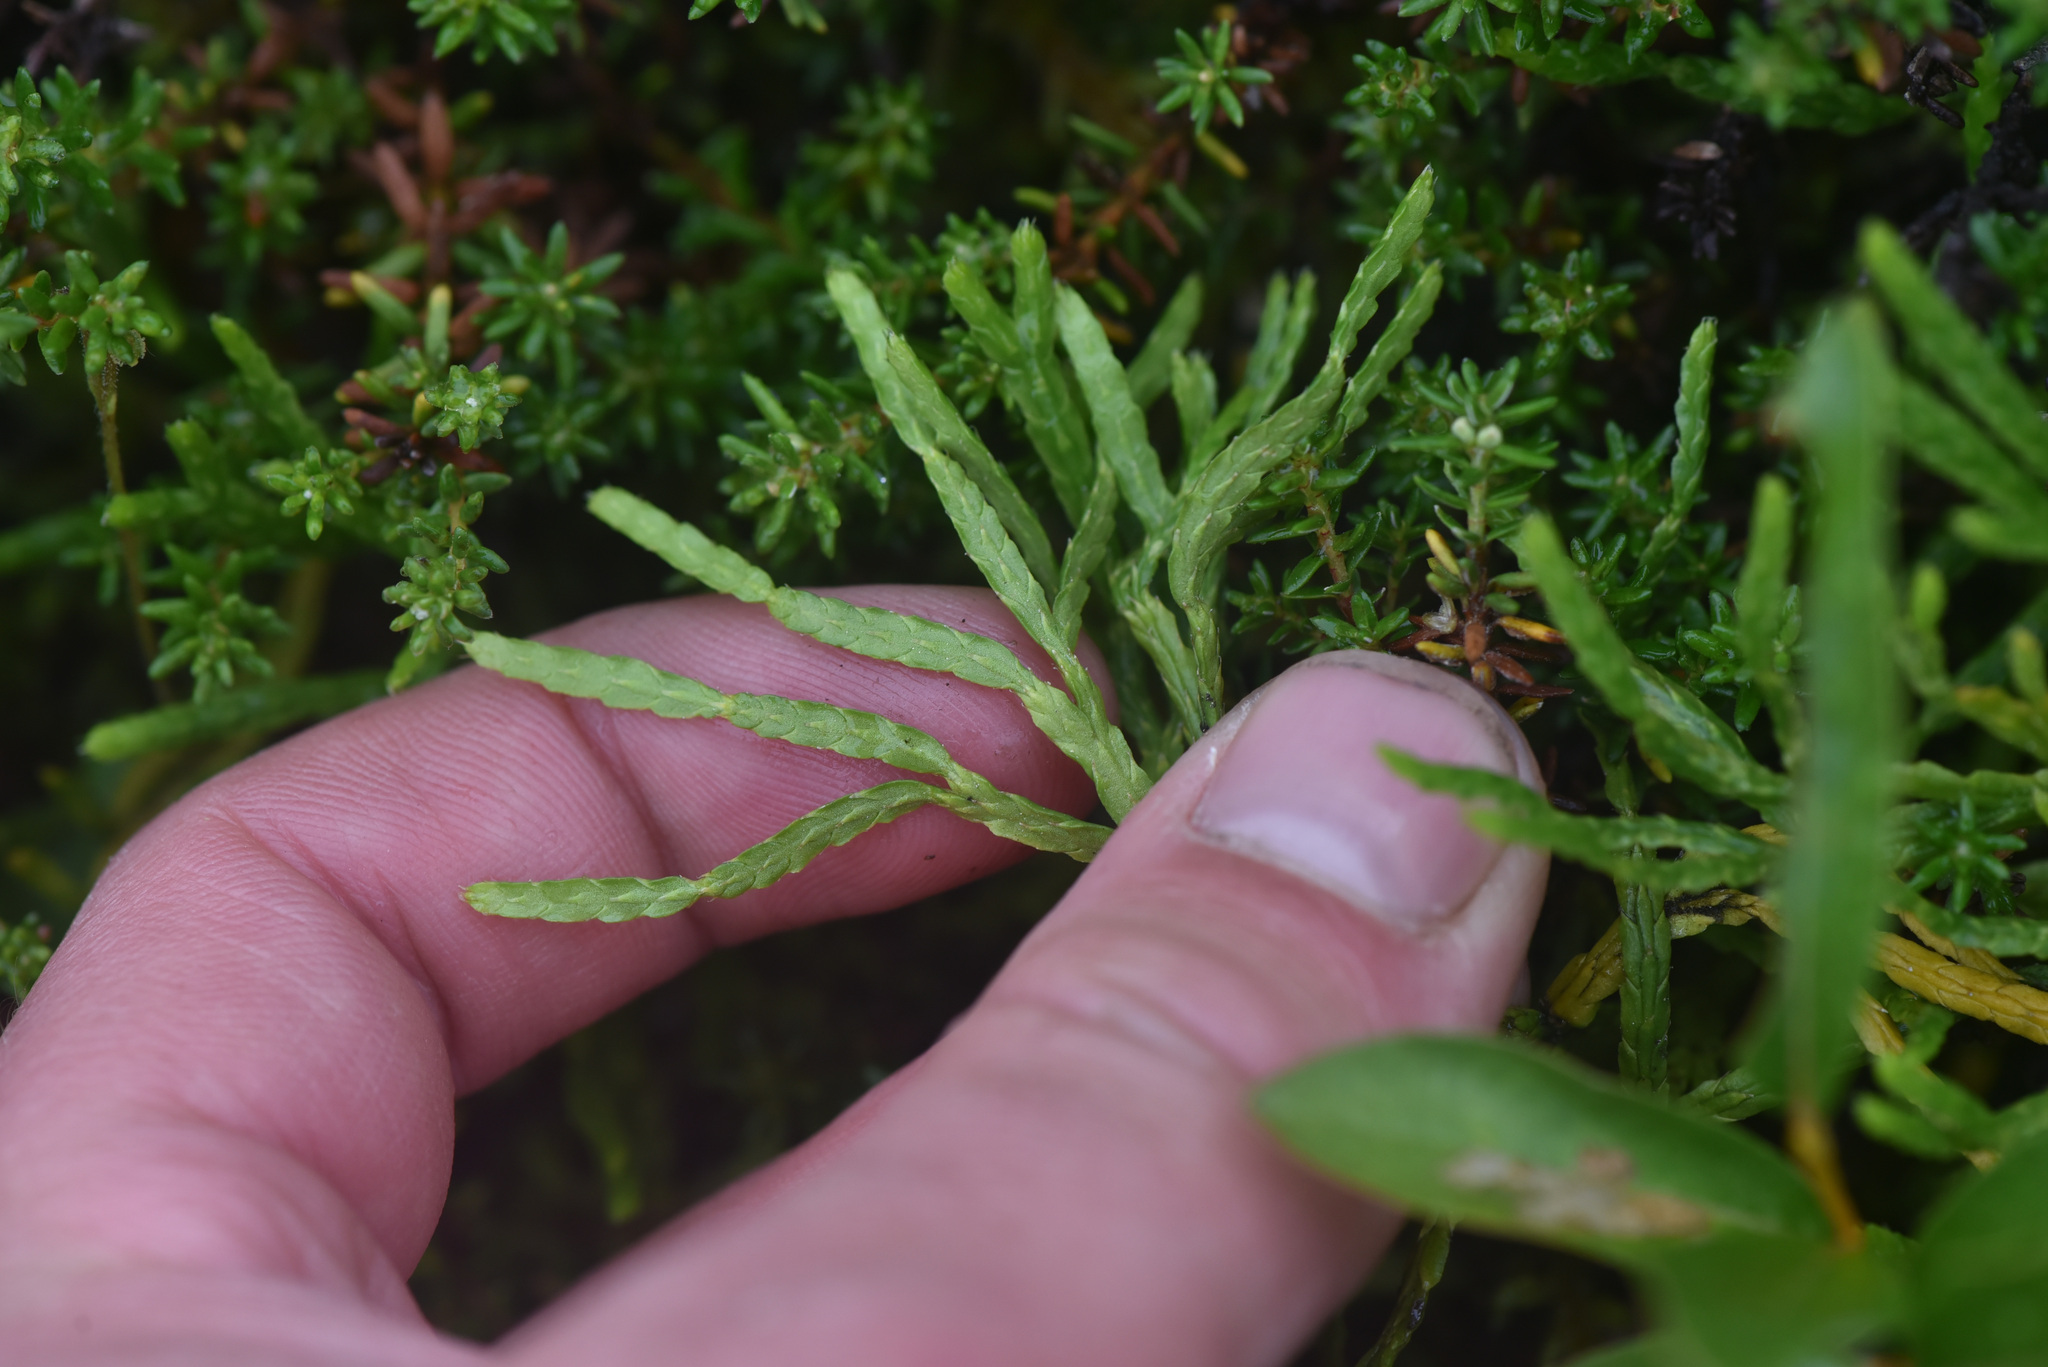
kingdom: Plantae
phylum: Tracheophyta
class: Lycopodiopsida
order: Lycopodiales
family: Lycopodiaceae
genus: Diphasiastrum
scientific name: Diphasiastrum complanatum
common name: Northern running-pine
